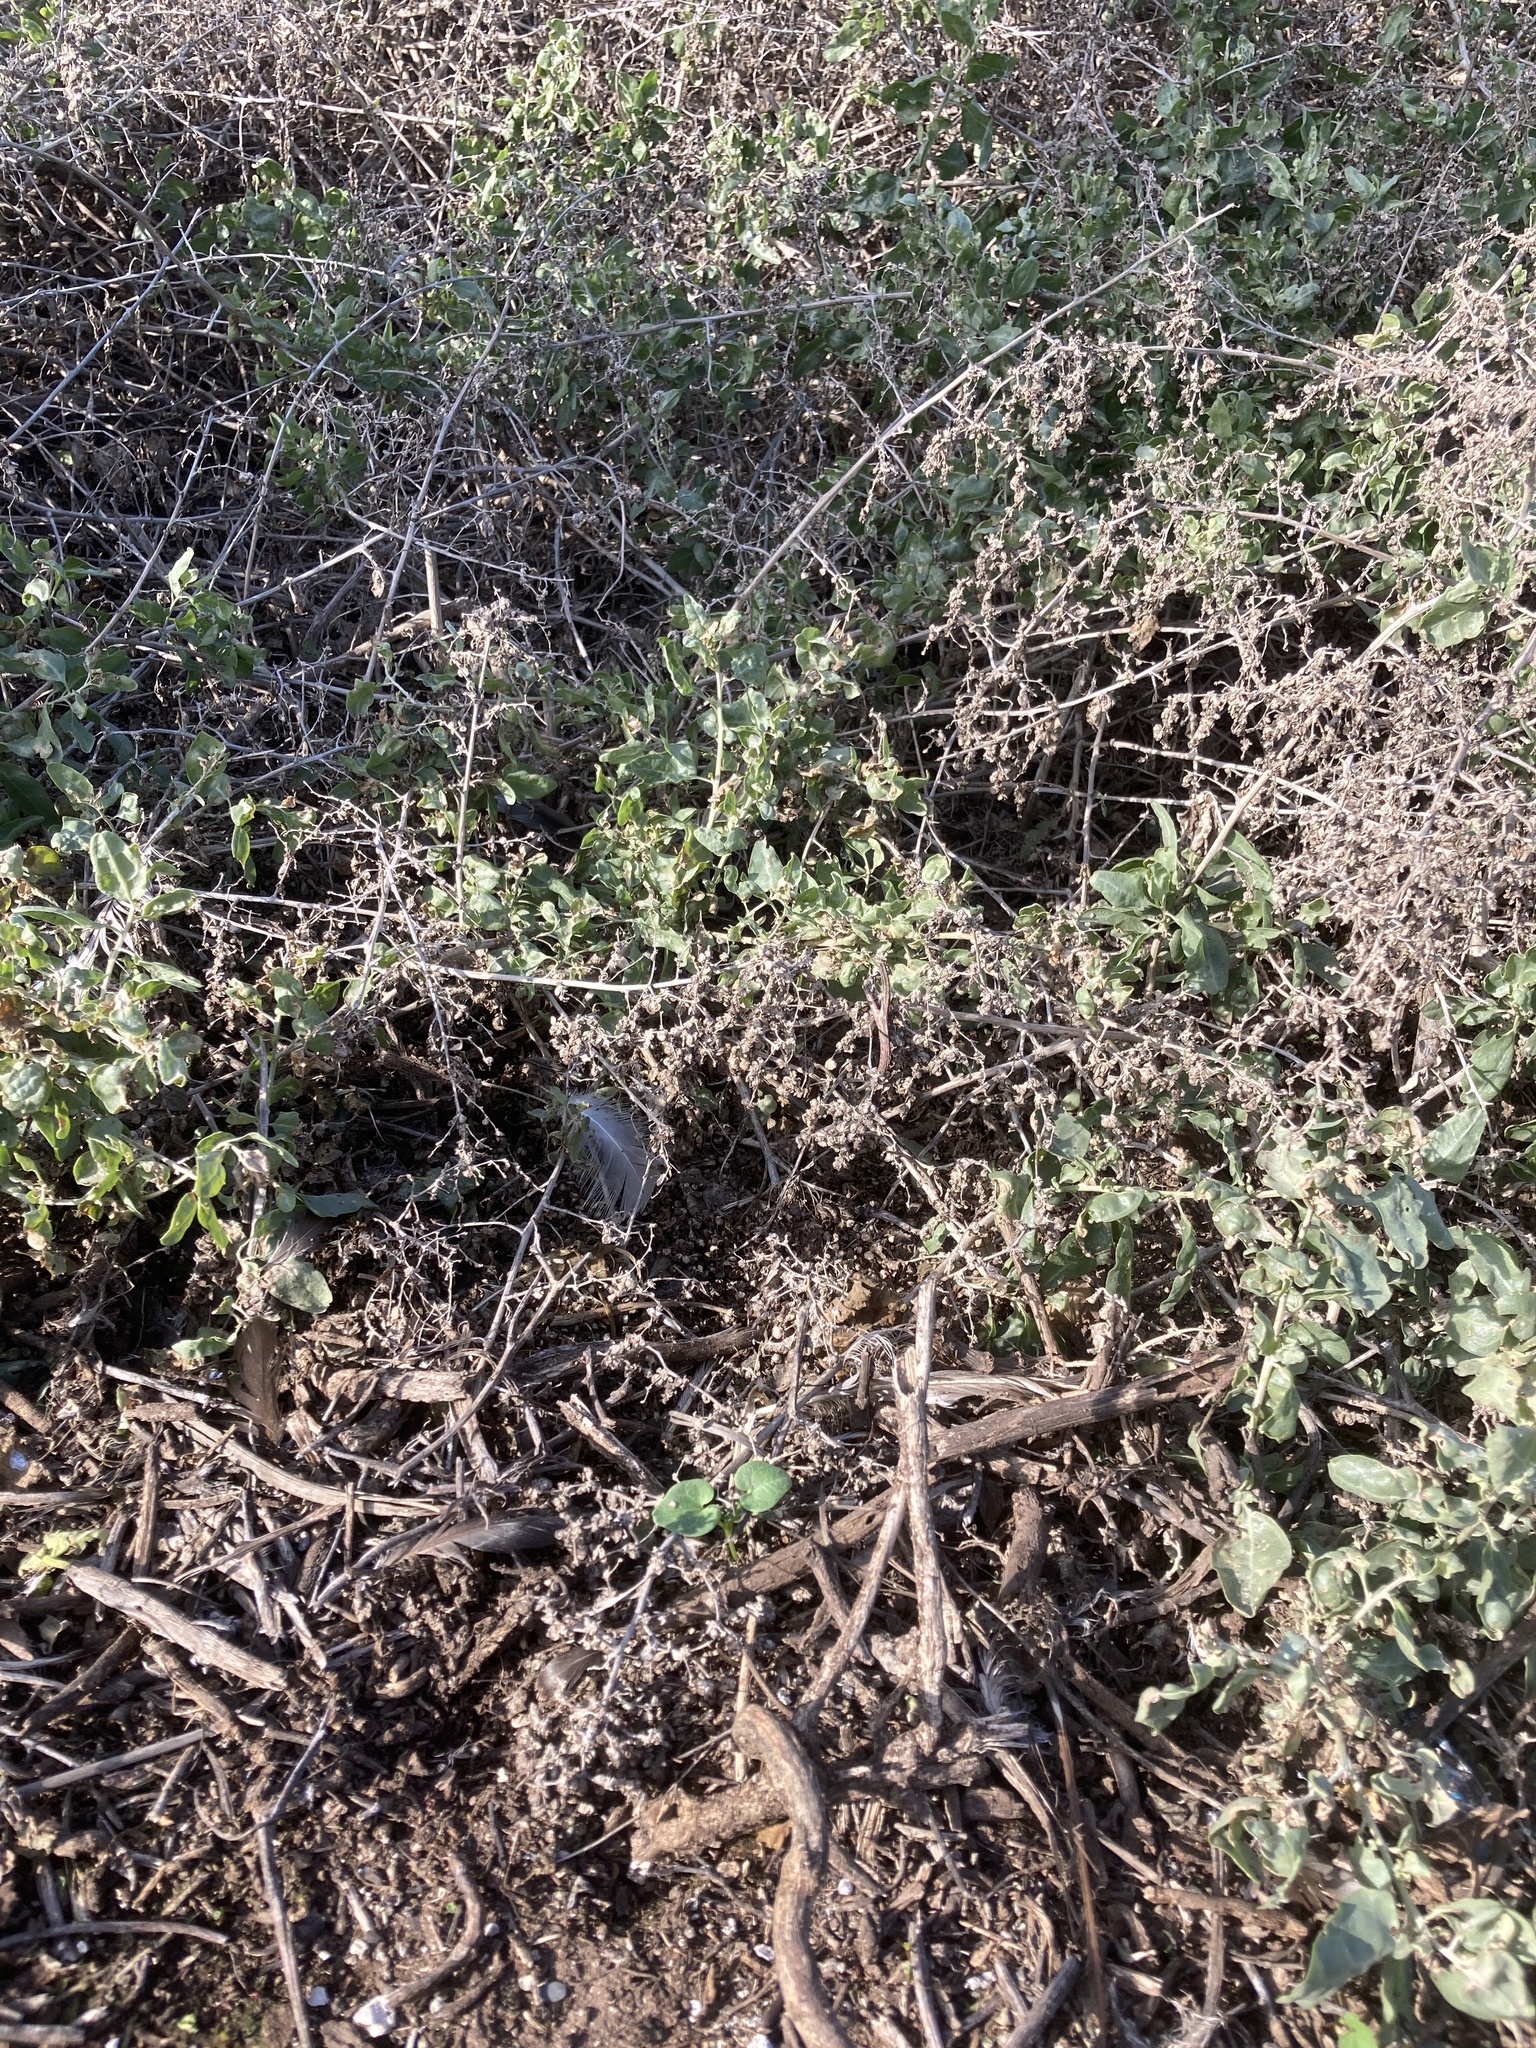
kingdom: Plantae
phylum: Tracheophyta
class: Magnoliopsida
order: Caryophyllales
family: Amaranthaceae
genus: Atriplex
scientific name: Atriplex lentiformis
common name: Big saltbush
